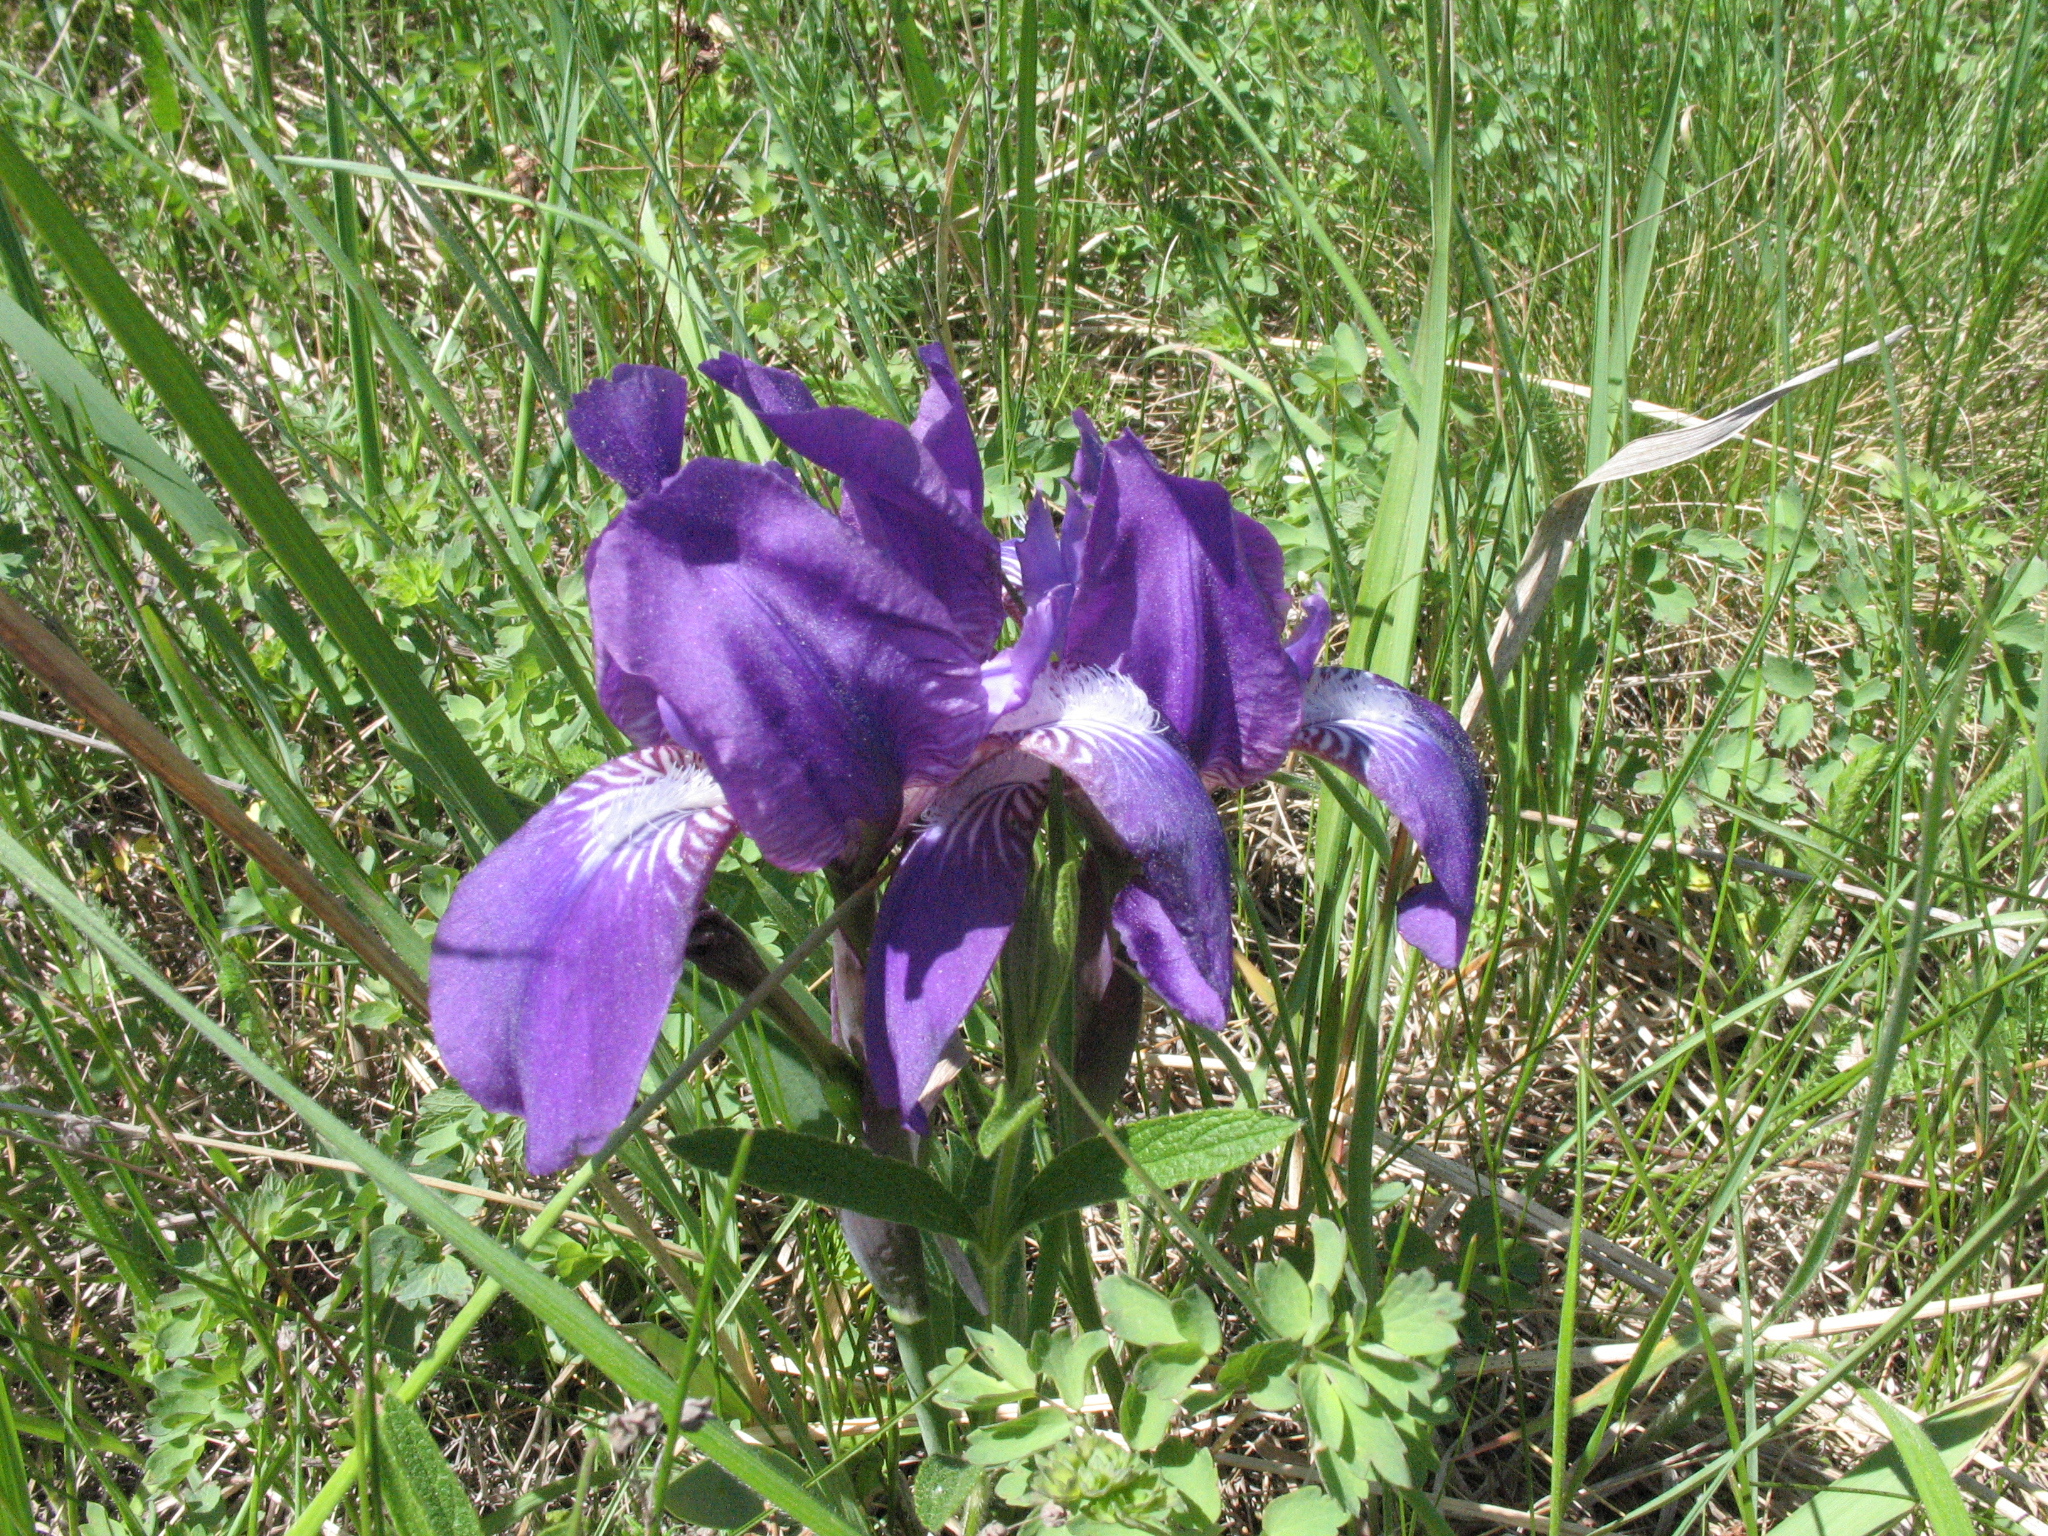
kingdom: Plantae
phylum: Tracheophyta
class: Liliopsida
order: Asparagales
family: Iridaceae
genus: Iris
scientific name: Iris aphylla
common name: Stool iris
